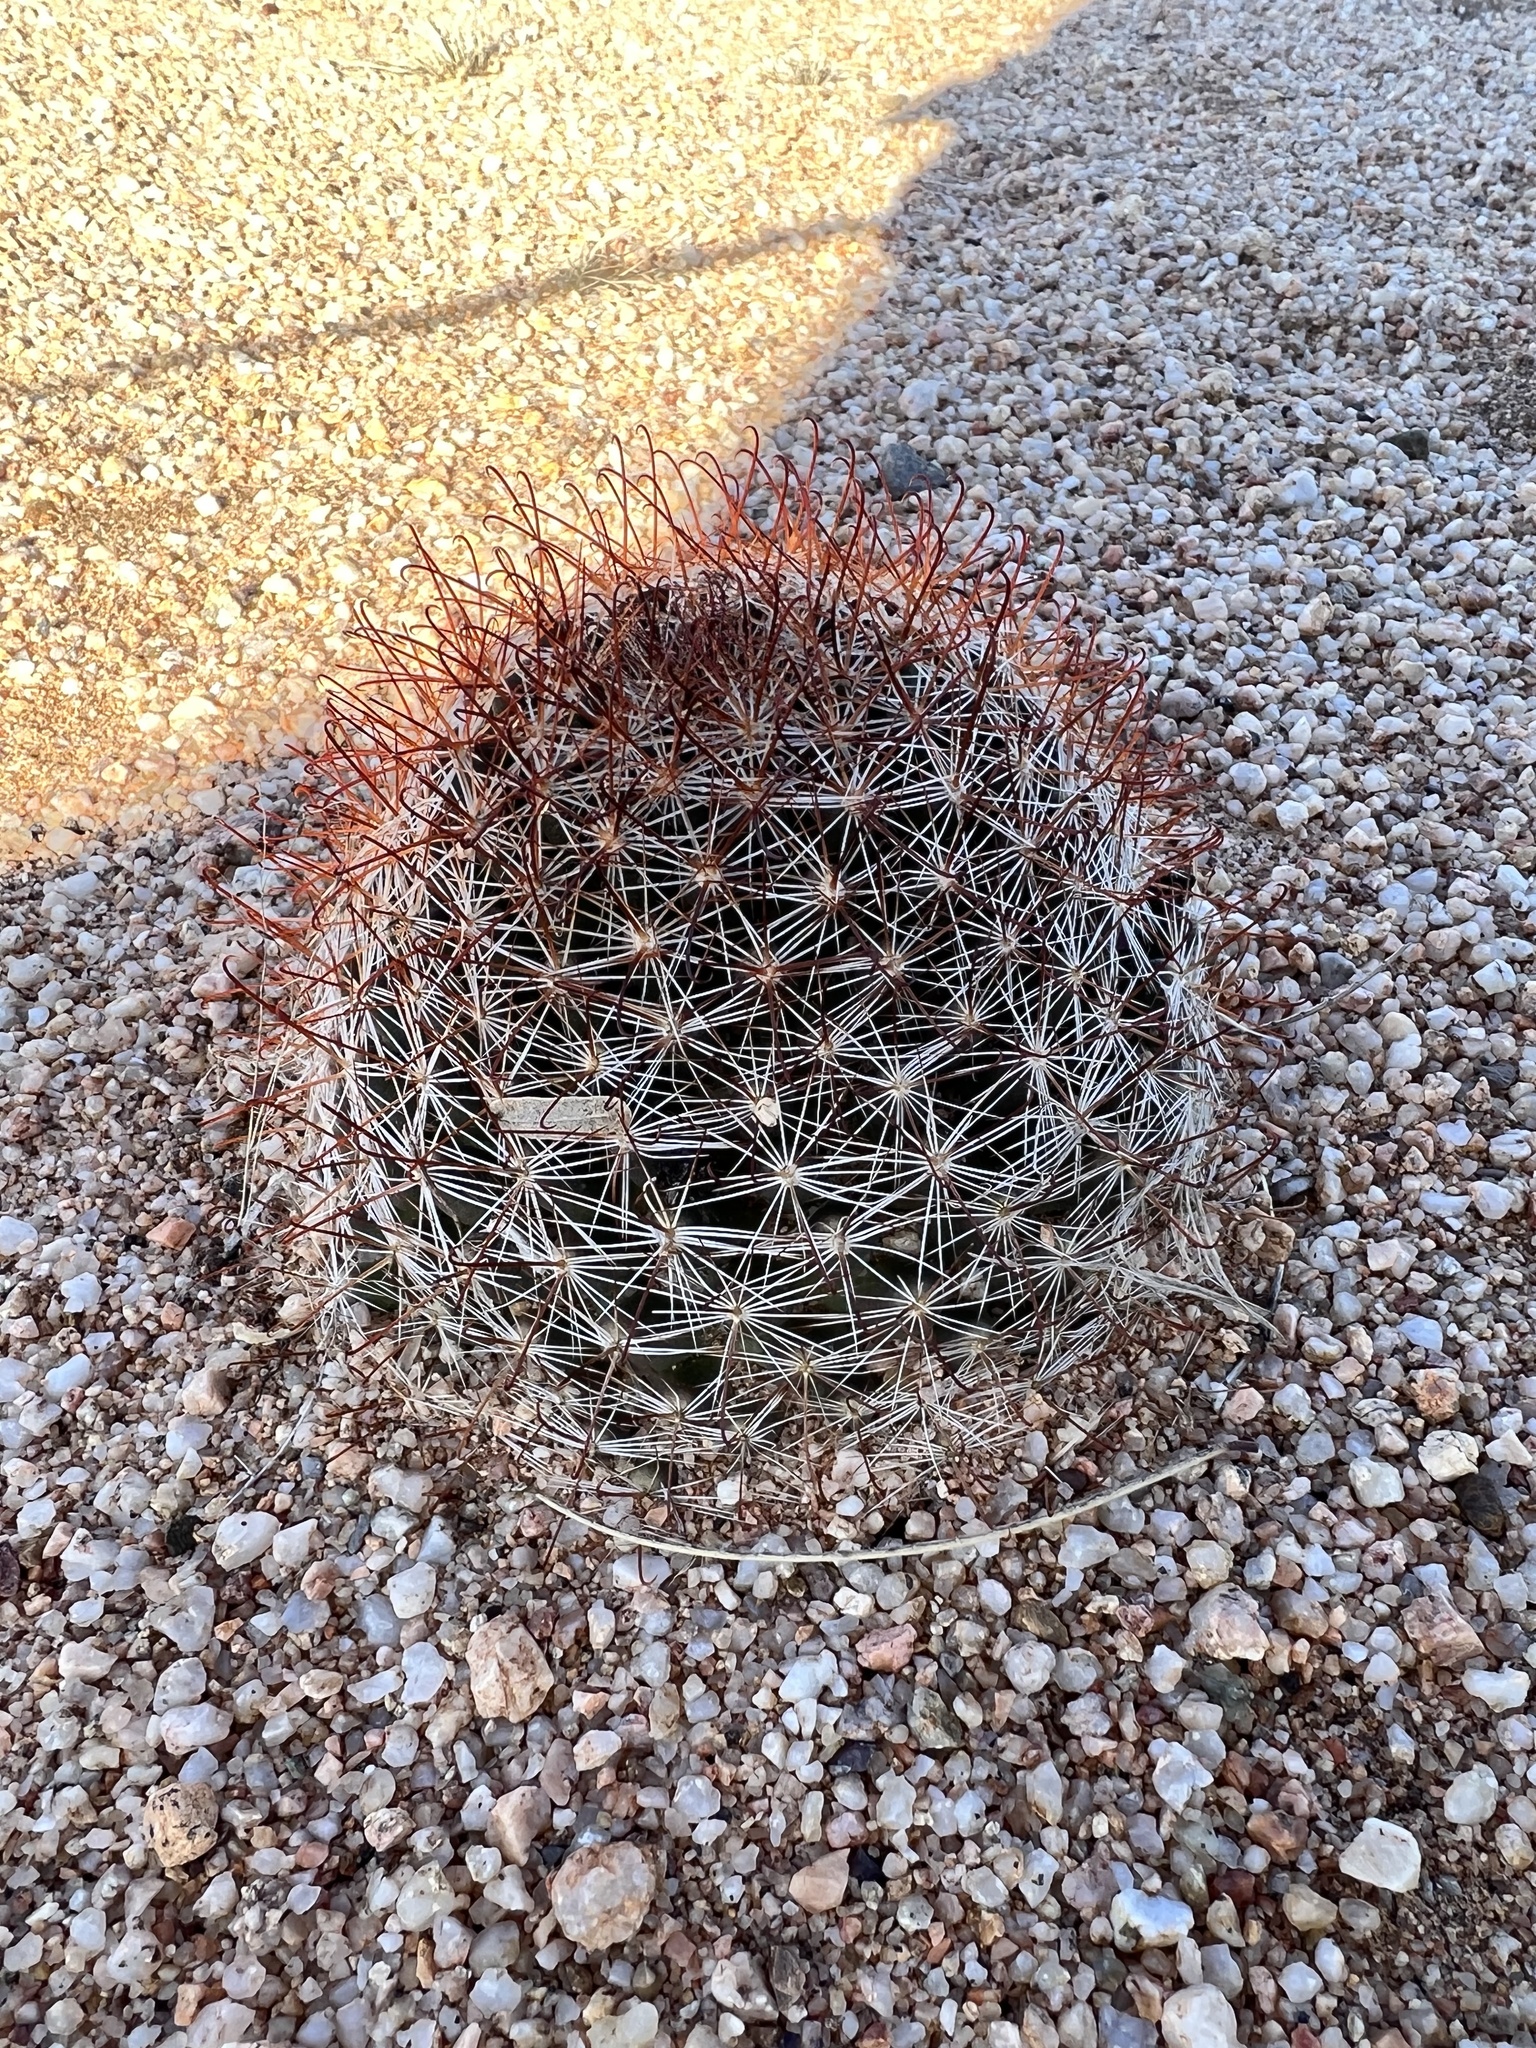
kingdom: Plantae
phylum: Tracheophyta
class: Magnoliopsida
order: Caryophyllales
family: Cactaceae
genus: Cochemiea
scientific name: Cochemiea wrightii
